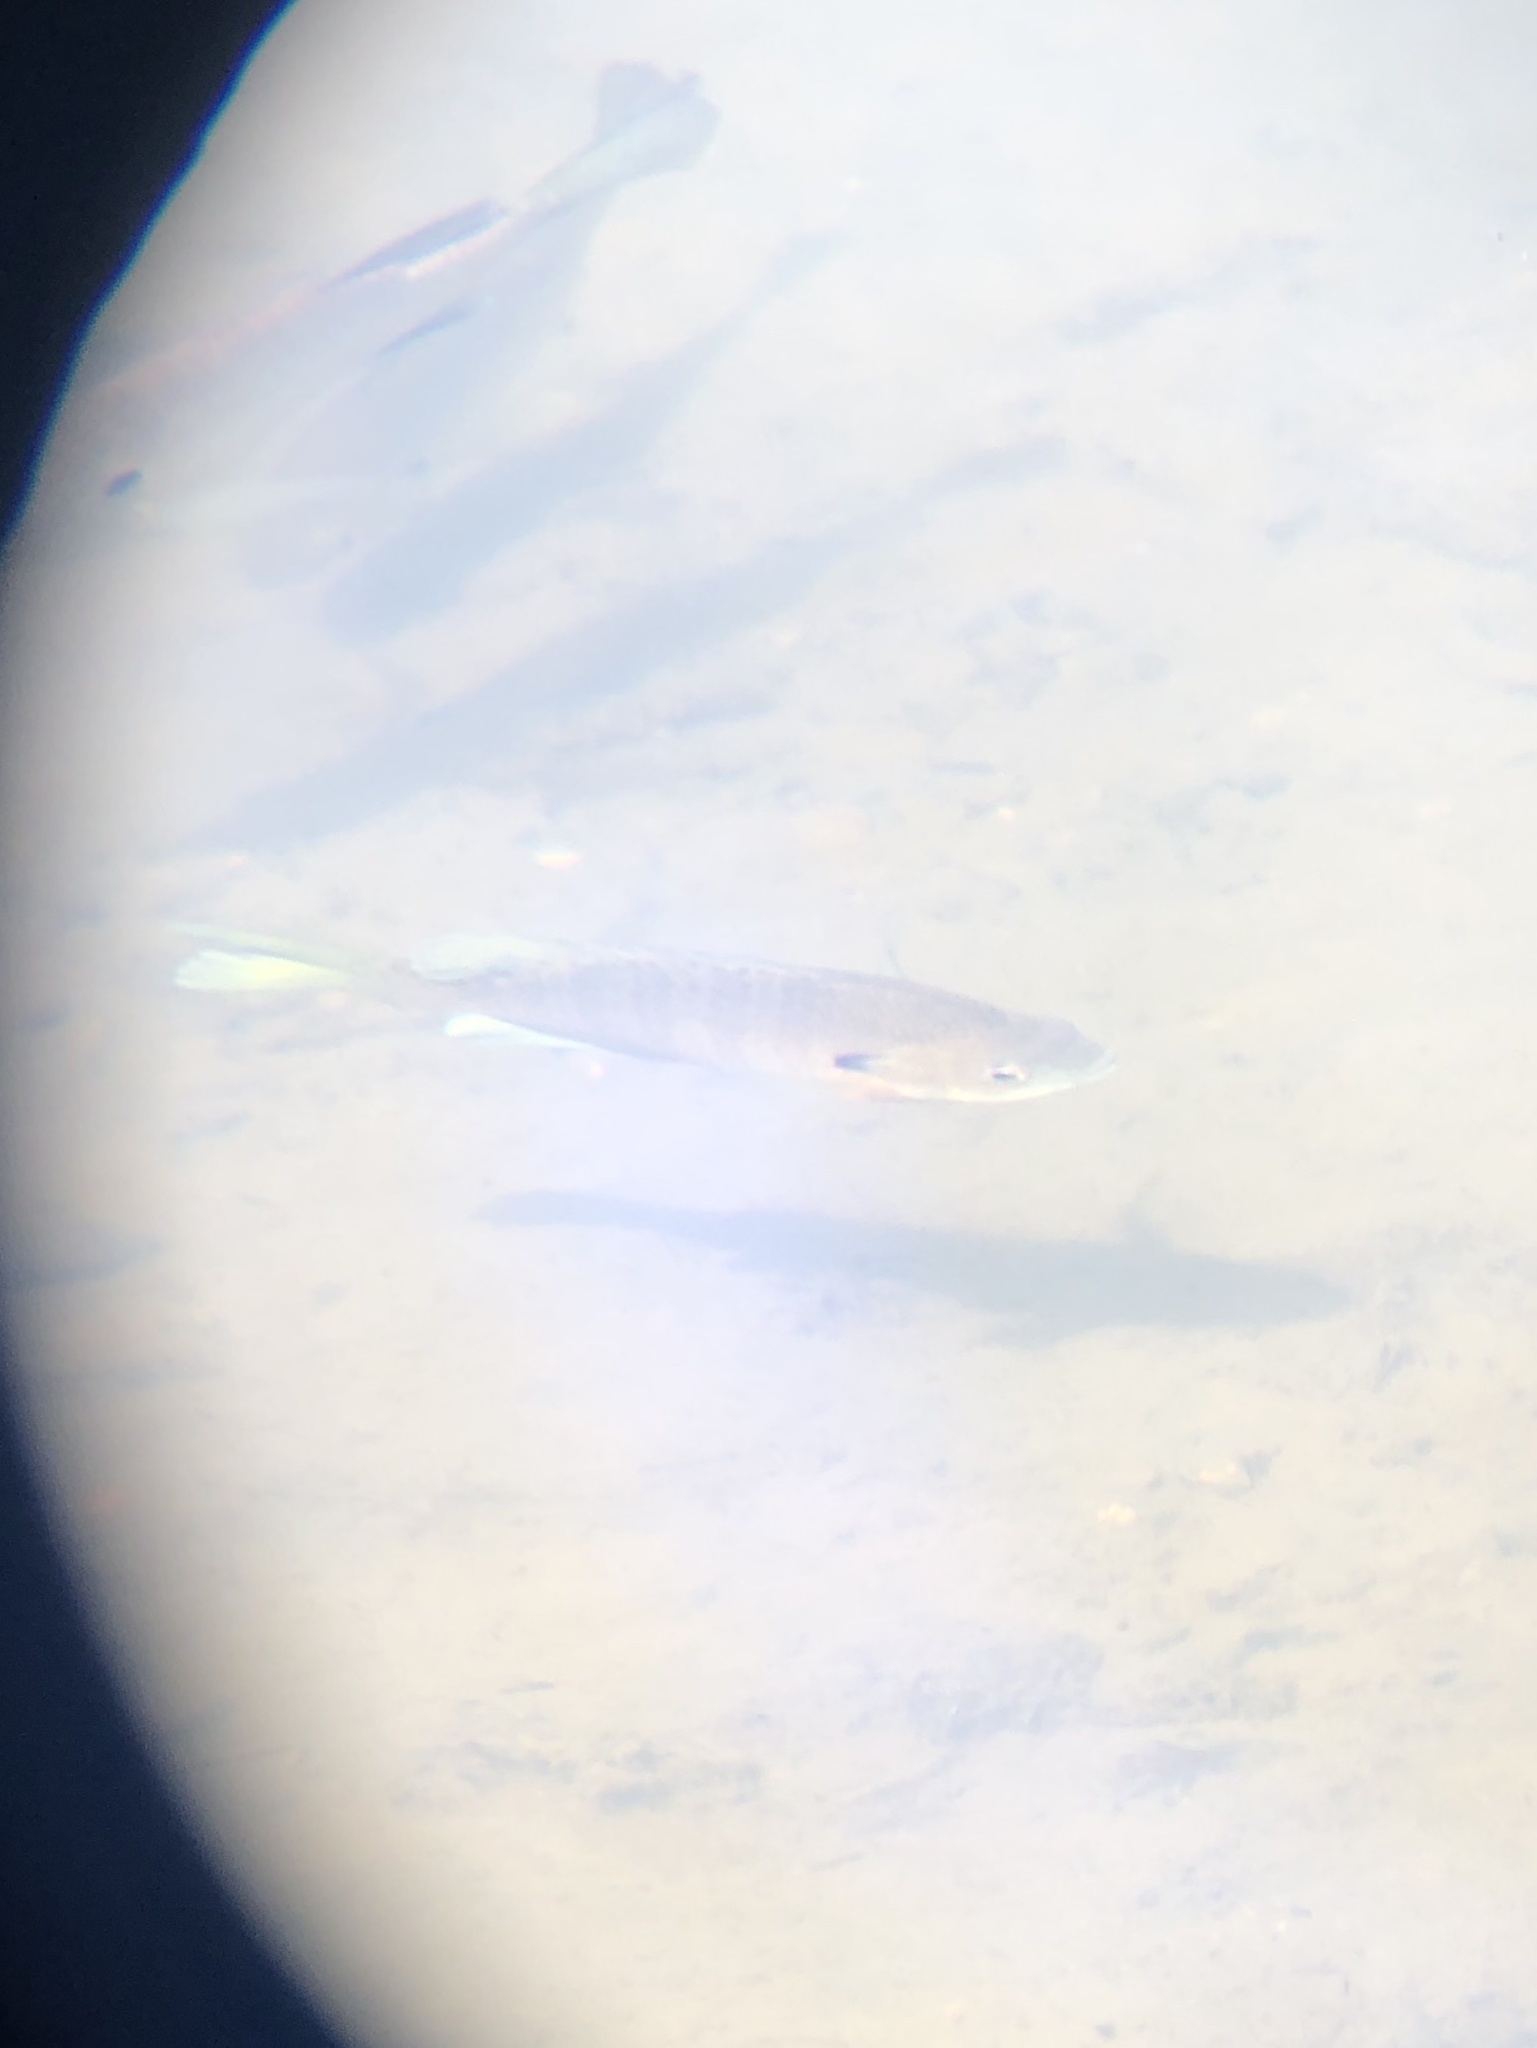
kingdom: Animalia
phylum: Chordata
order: Perciformes
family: Centrarchidae
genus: Lepomis
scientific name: Lepomis macrochirus
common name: Bluegill
